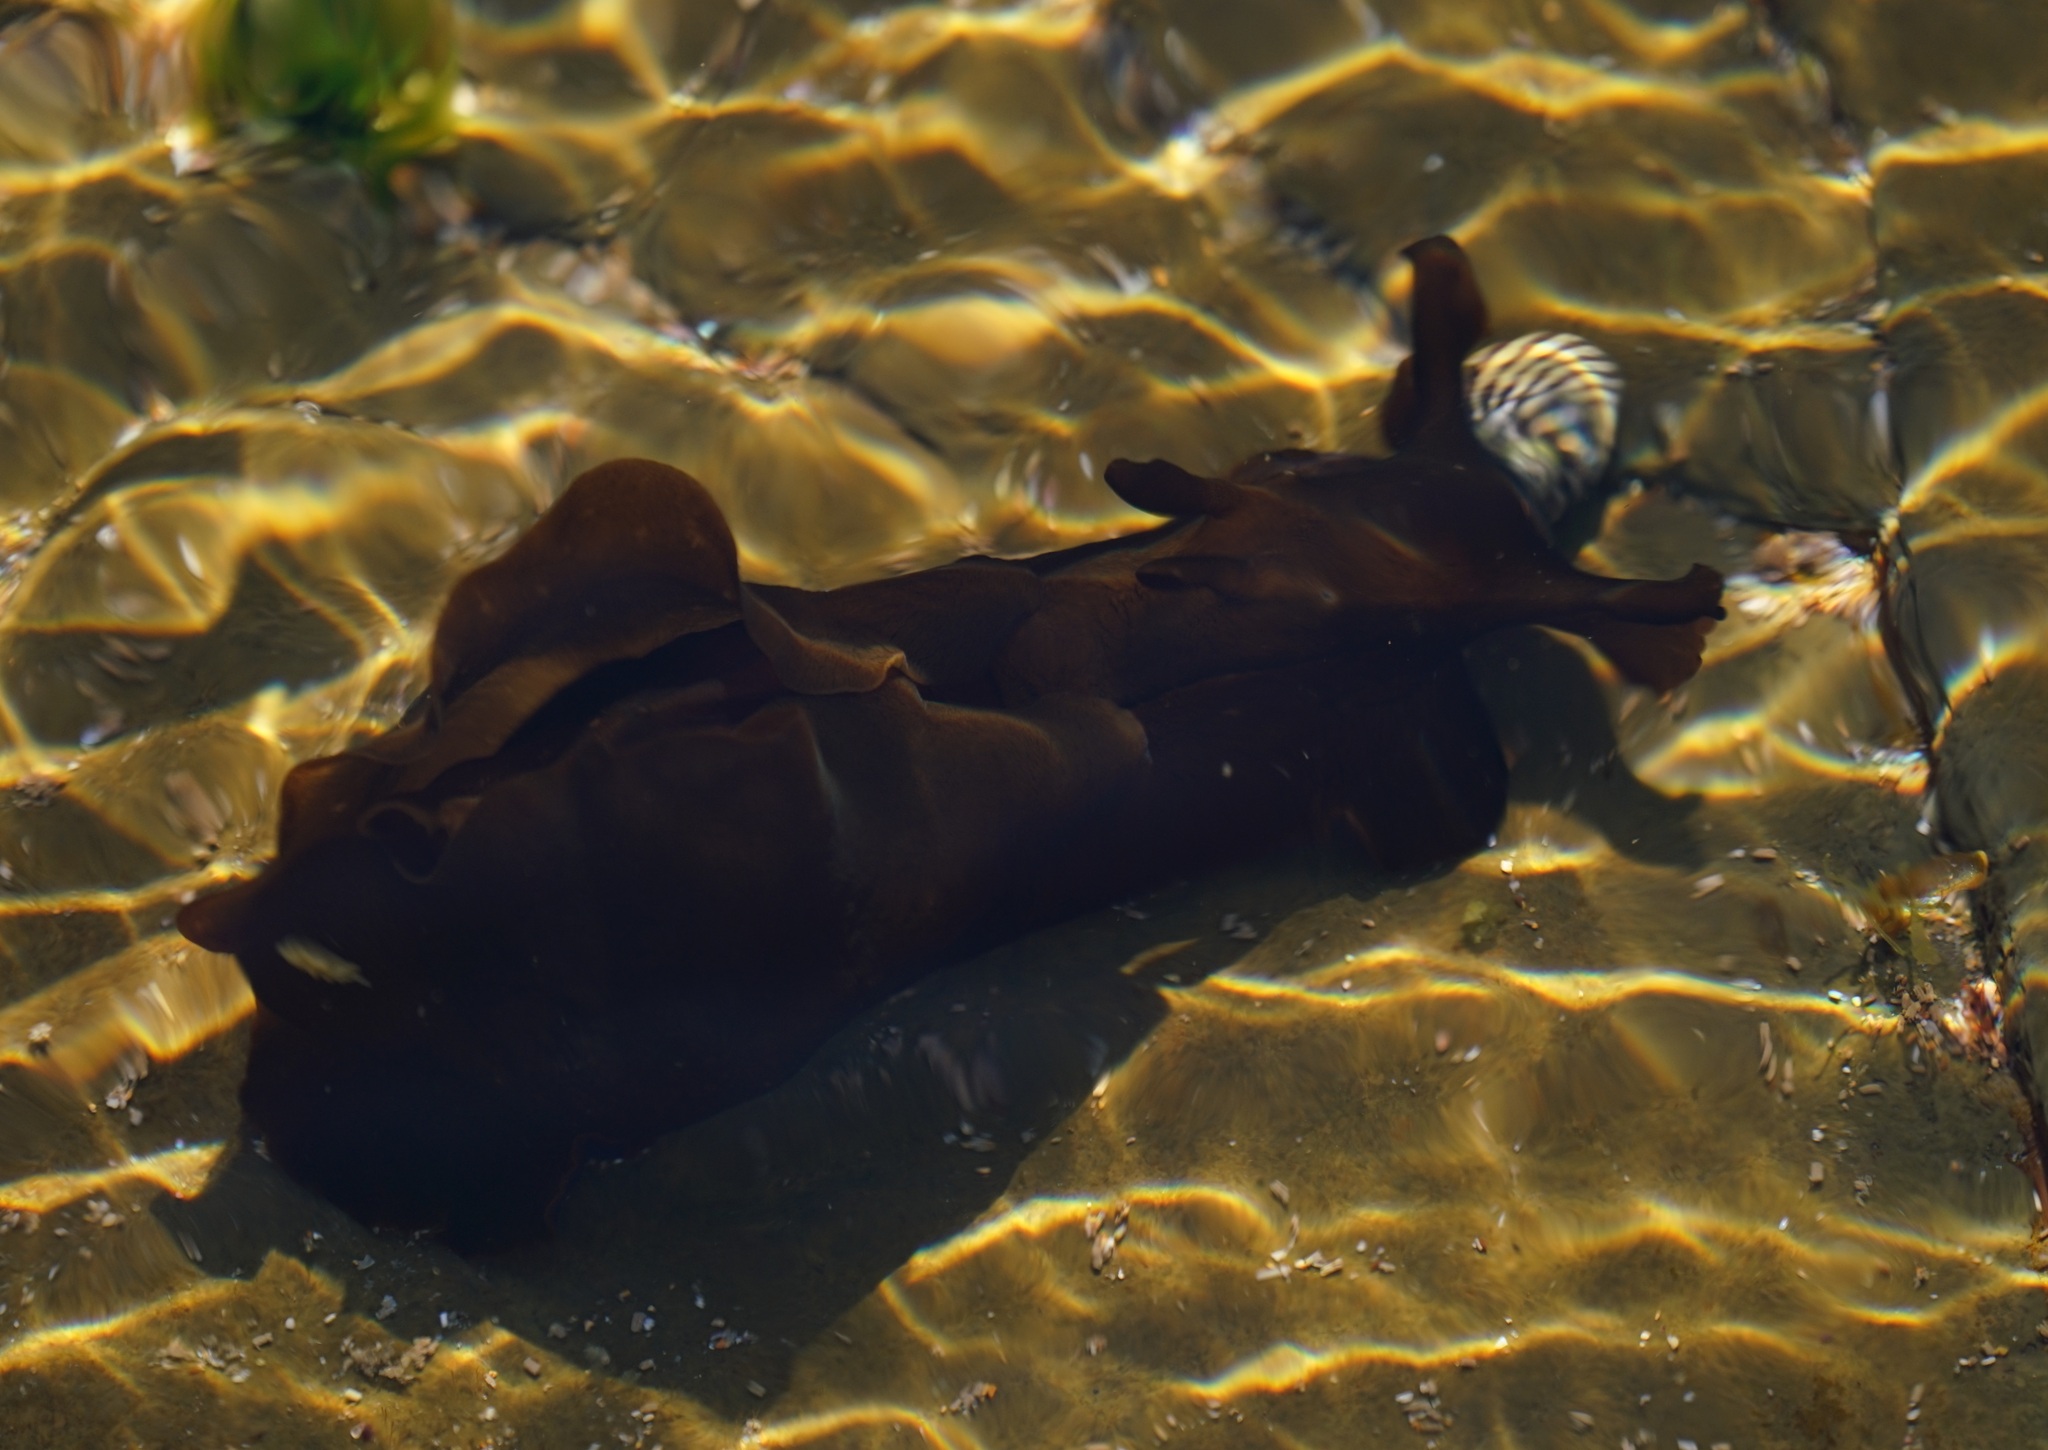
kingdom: Animalia
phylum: Mollusca
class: Gastropoda
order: Aplysiida
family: Aplysiidae
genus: Aplysia
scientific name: Aplysia juliana
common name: Walking sea hare
